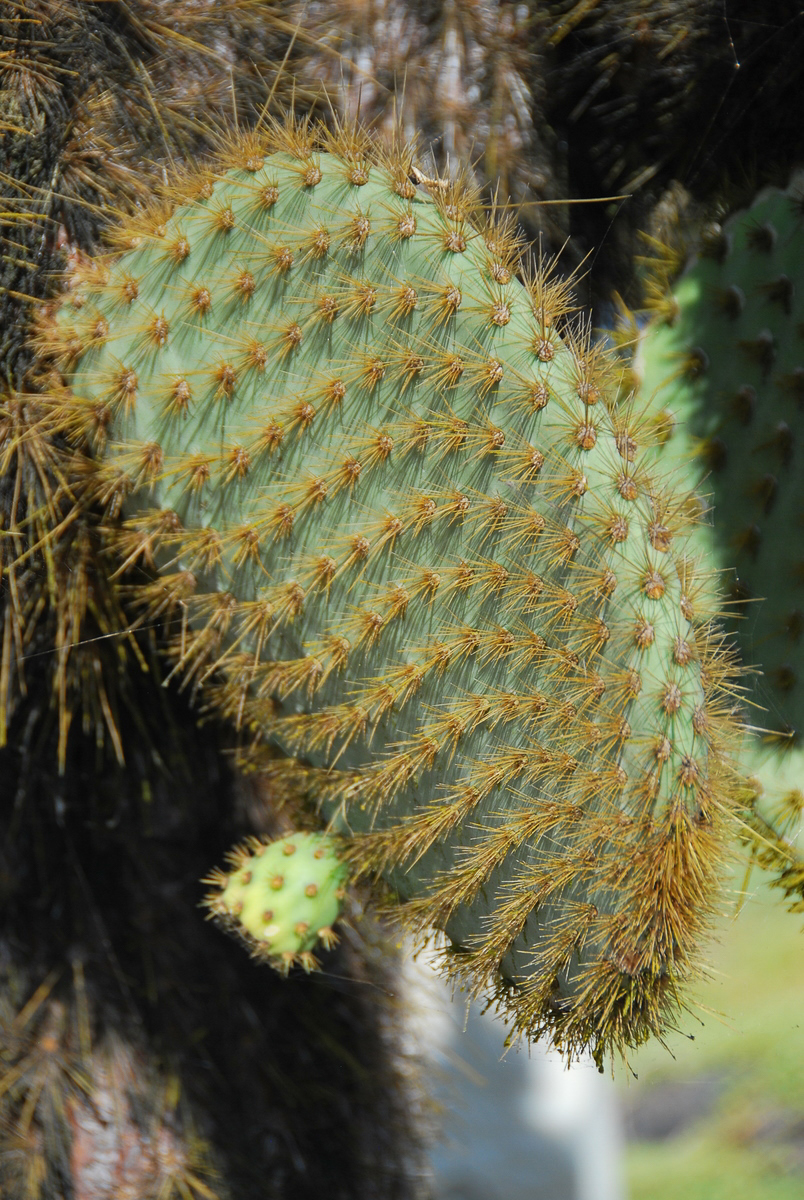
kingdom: Plantae
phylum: Tracheophyta
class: Magnoliopsida
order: Caryophyllales
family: Cactaceae
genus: Opuntia
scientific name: Opuntia galapageia
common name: Galápagos prickly pear
